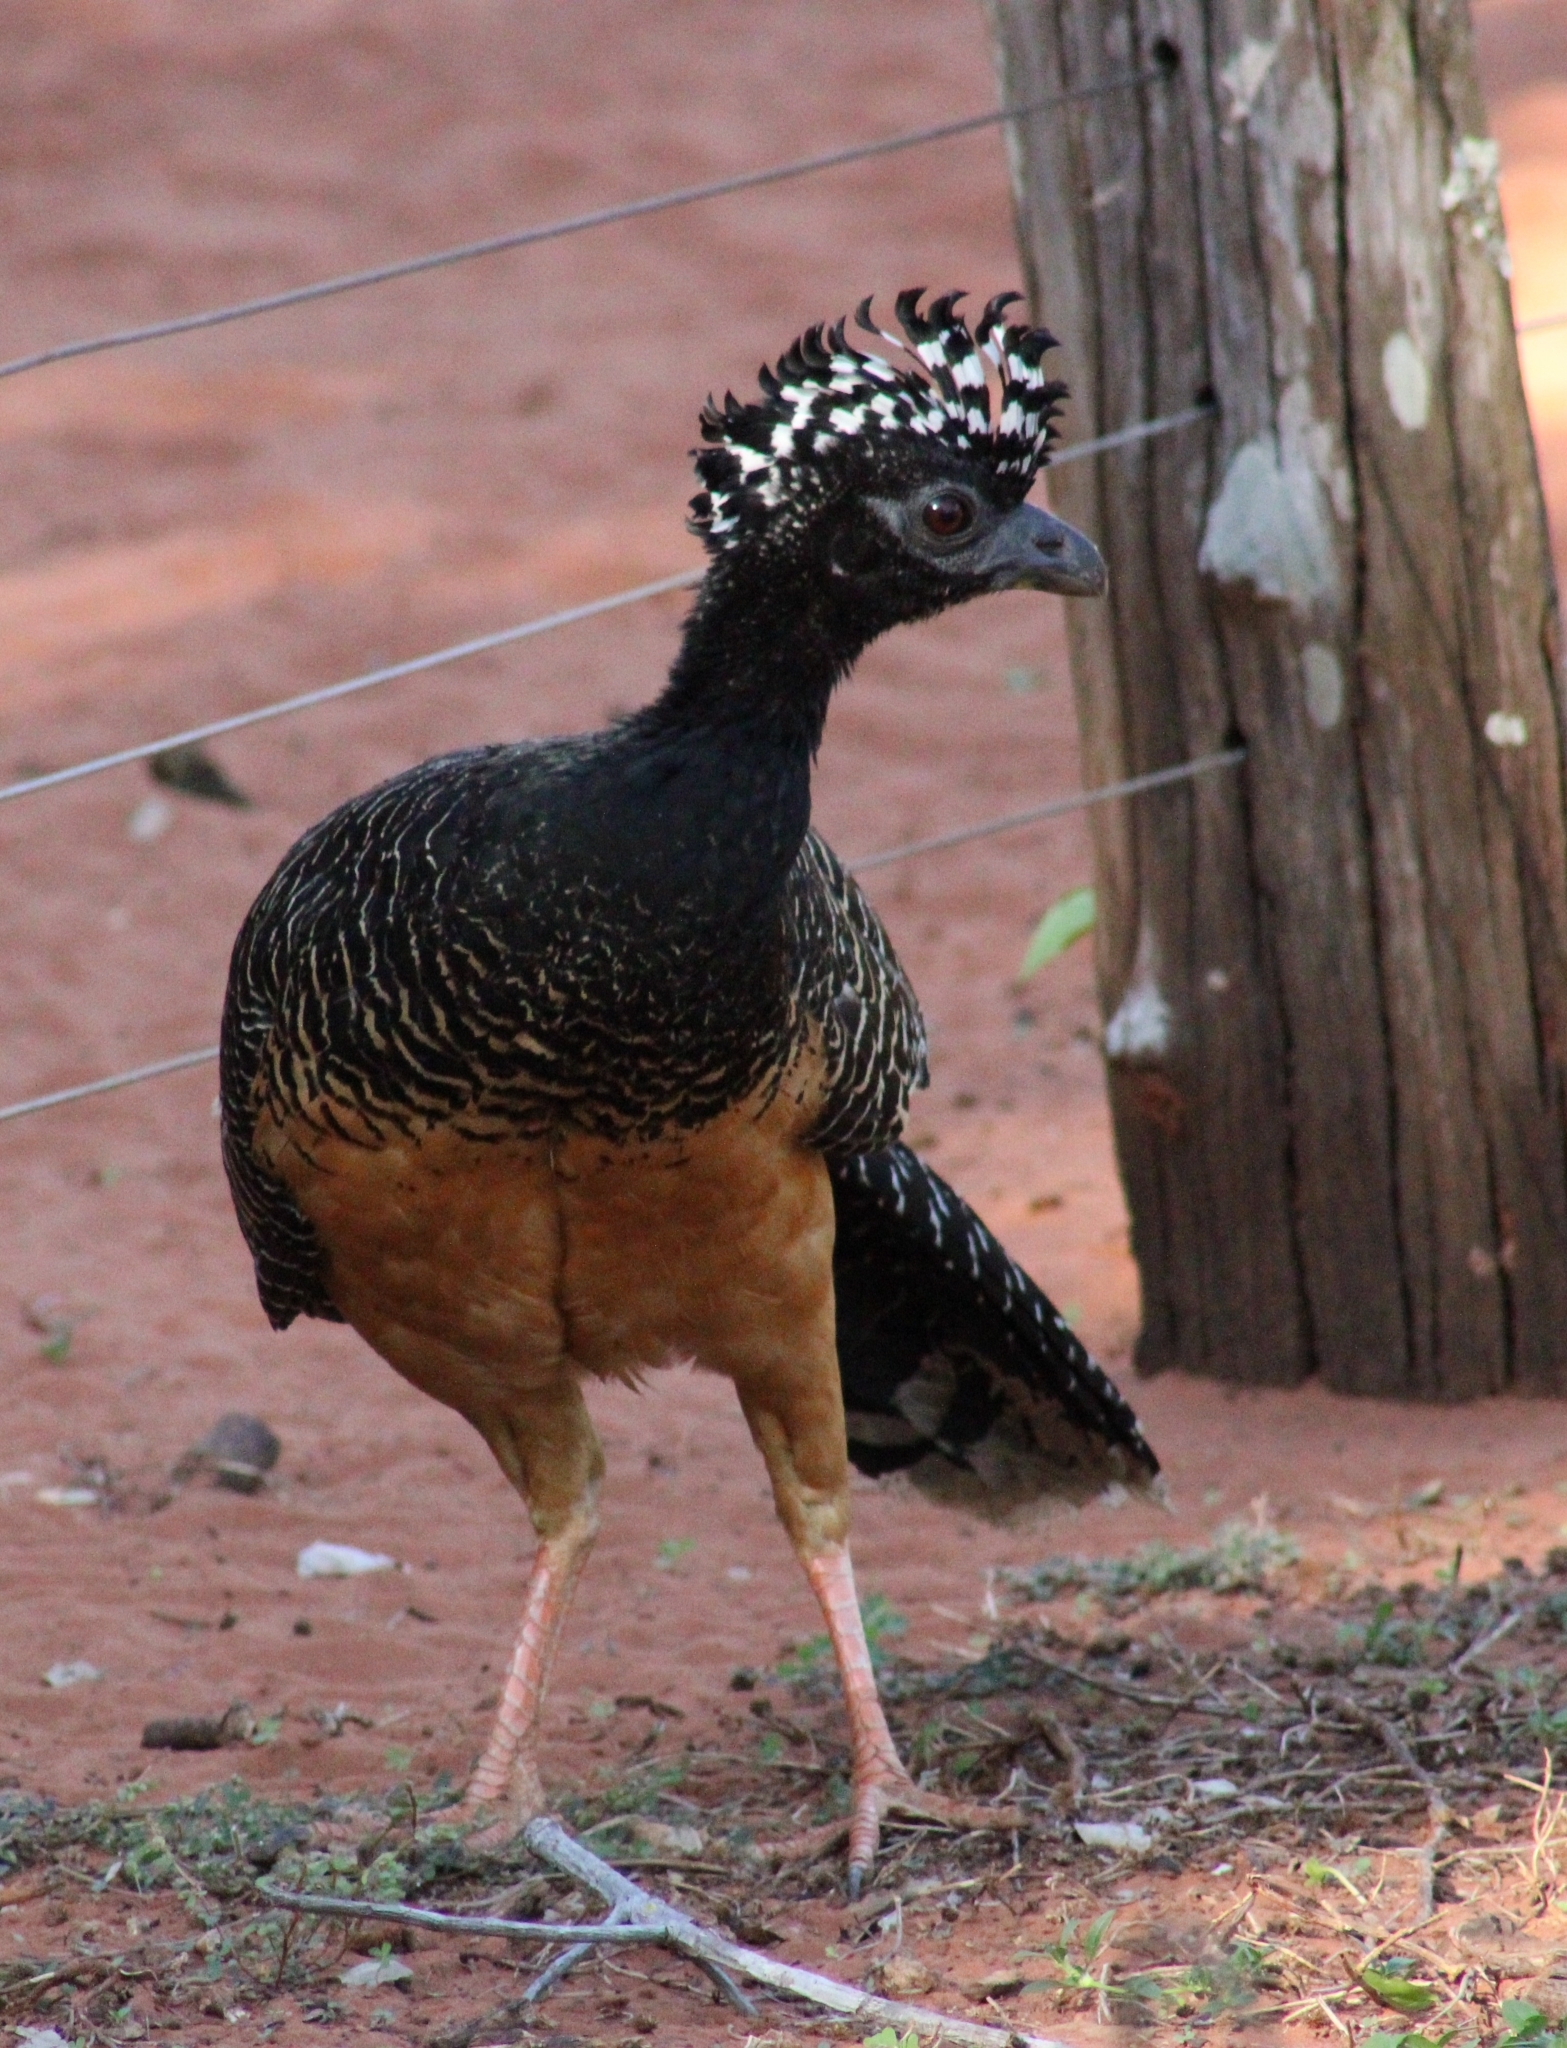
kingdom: Animalia
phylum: Chordata
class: Aves
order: Galliformes
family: Cracidae
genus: Crax
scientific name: Crax fasciolata
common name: Bare-faced curassow
